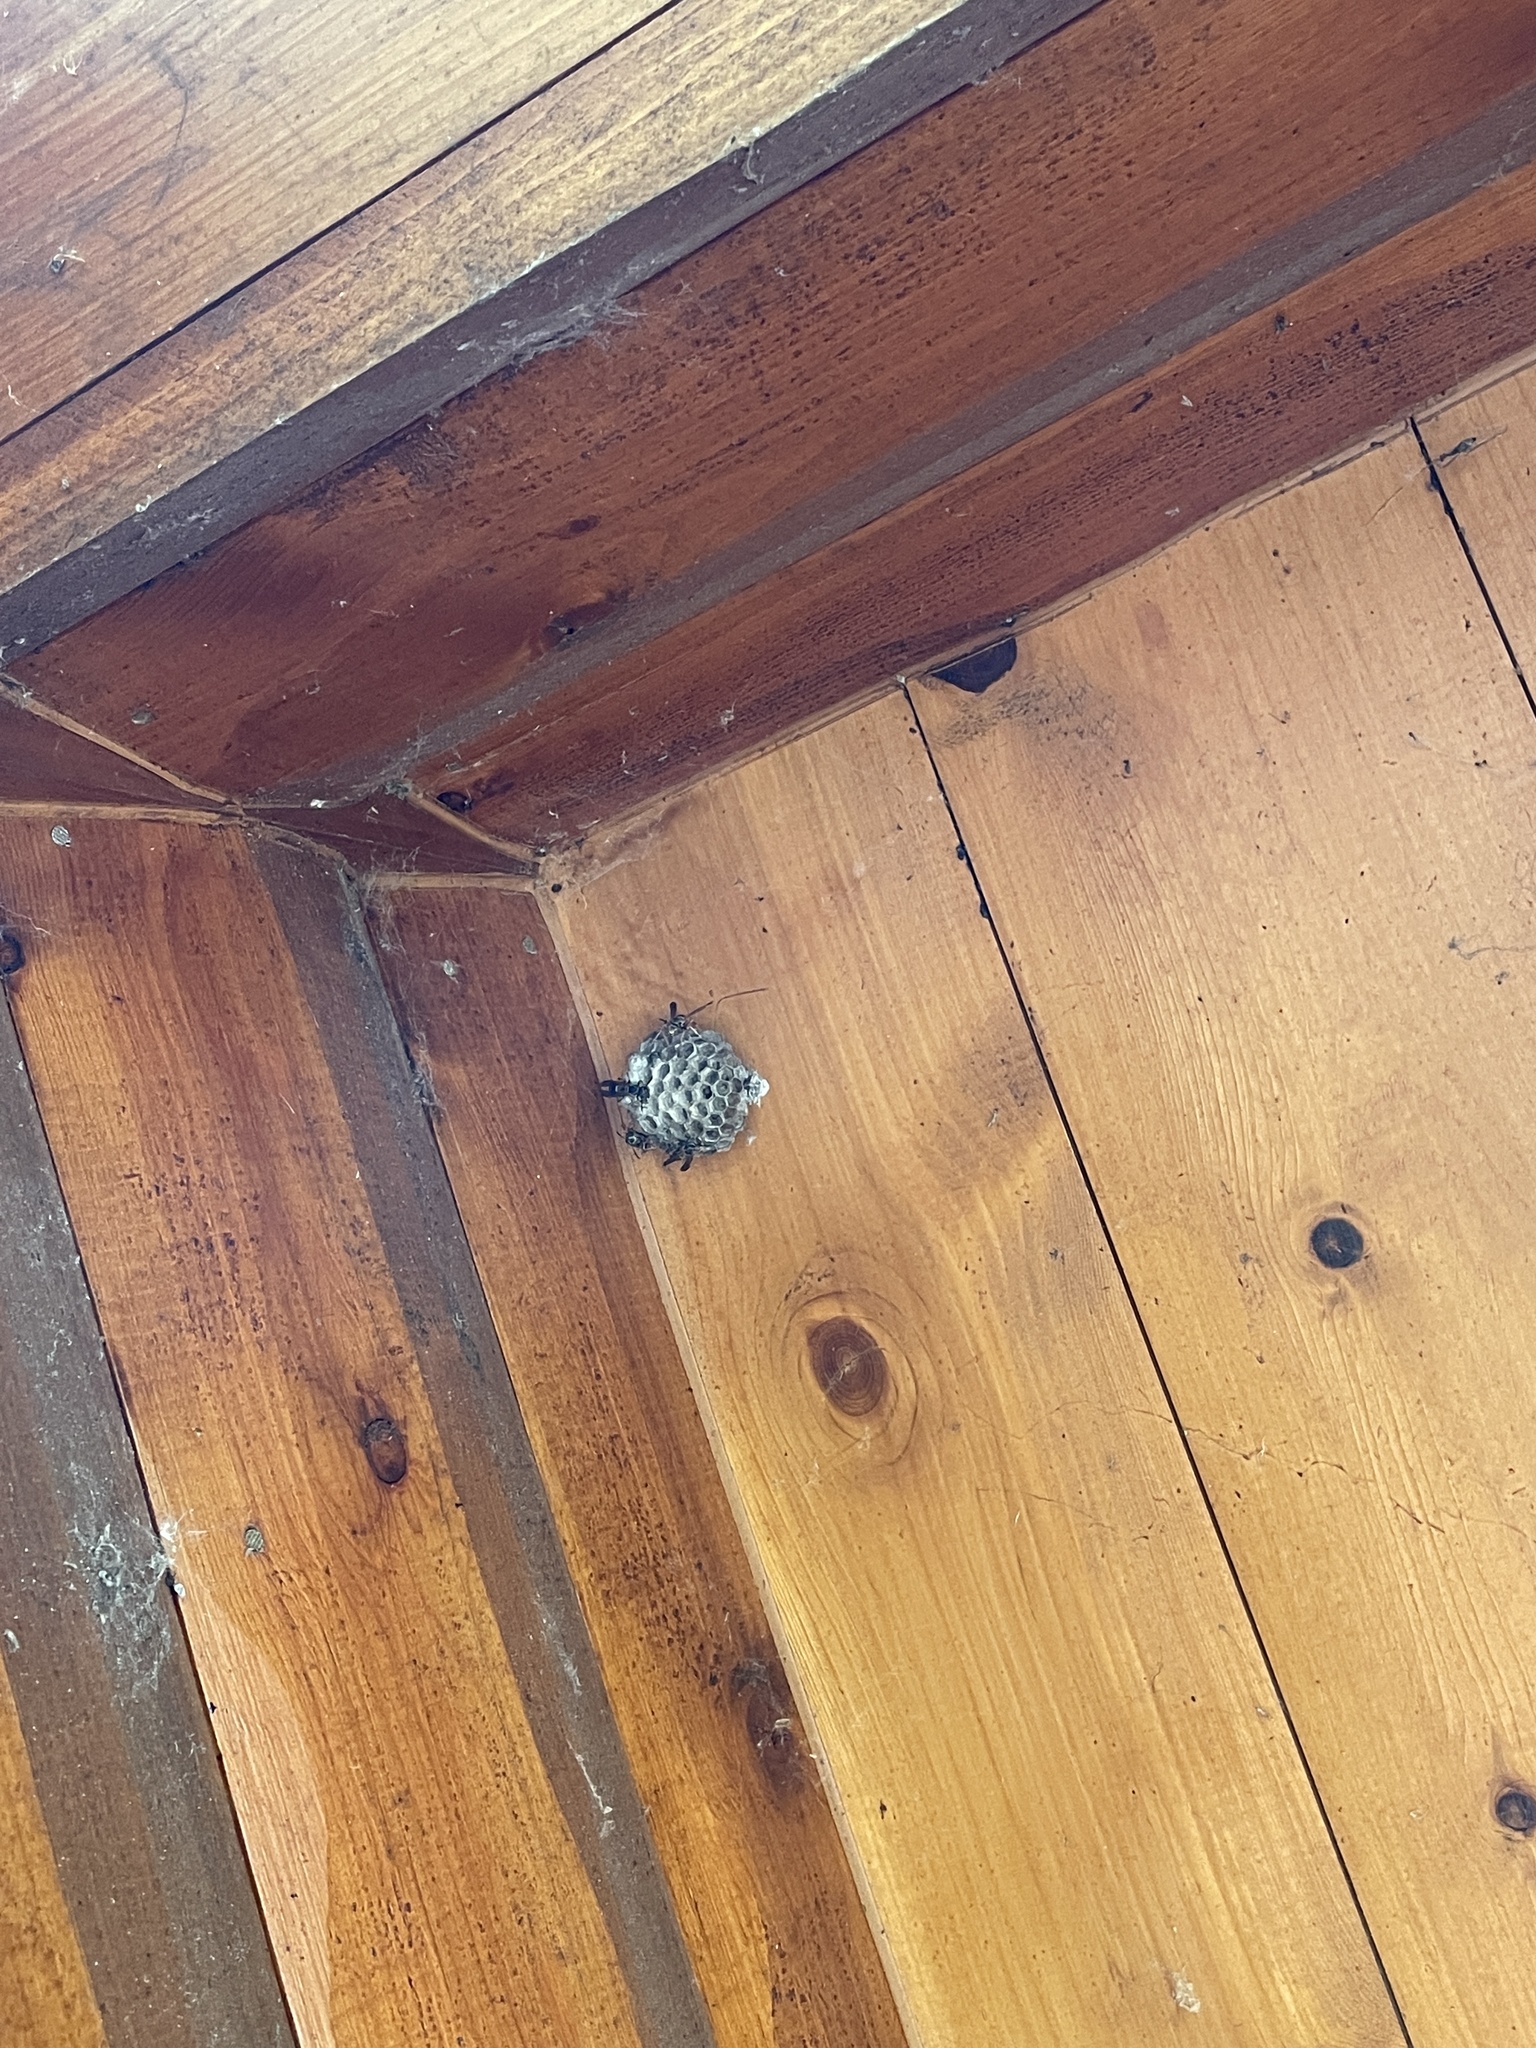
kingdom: Animalia
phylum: Arthropoda
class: Insecta
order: Hymenoptera
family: Eumenidae
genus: Polistes
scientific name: Polistes fuscatus
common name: Dark paper wasp
